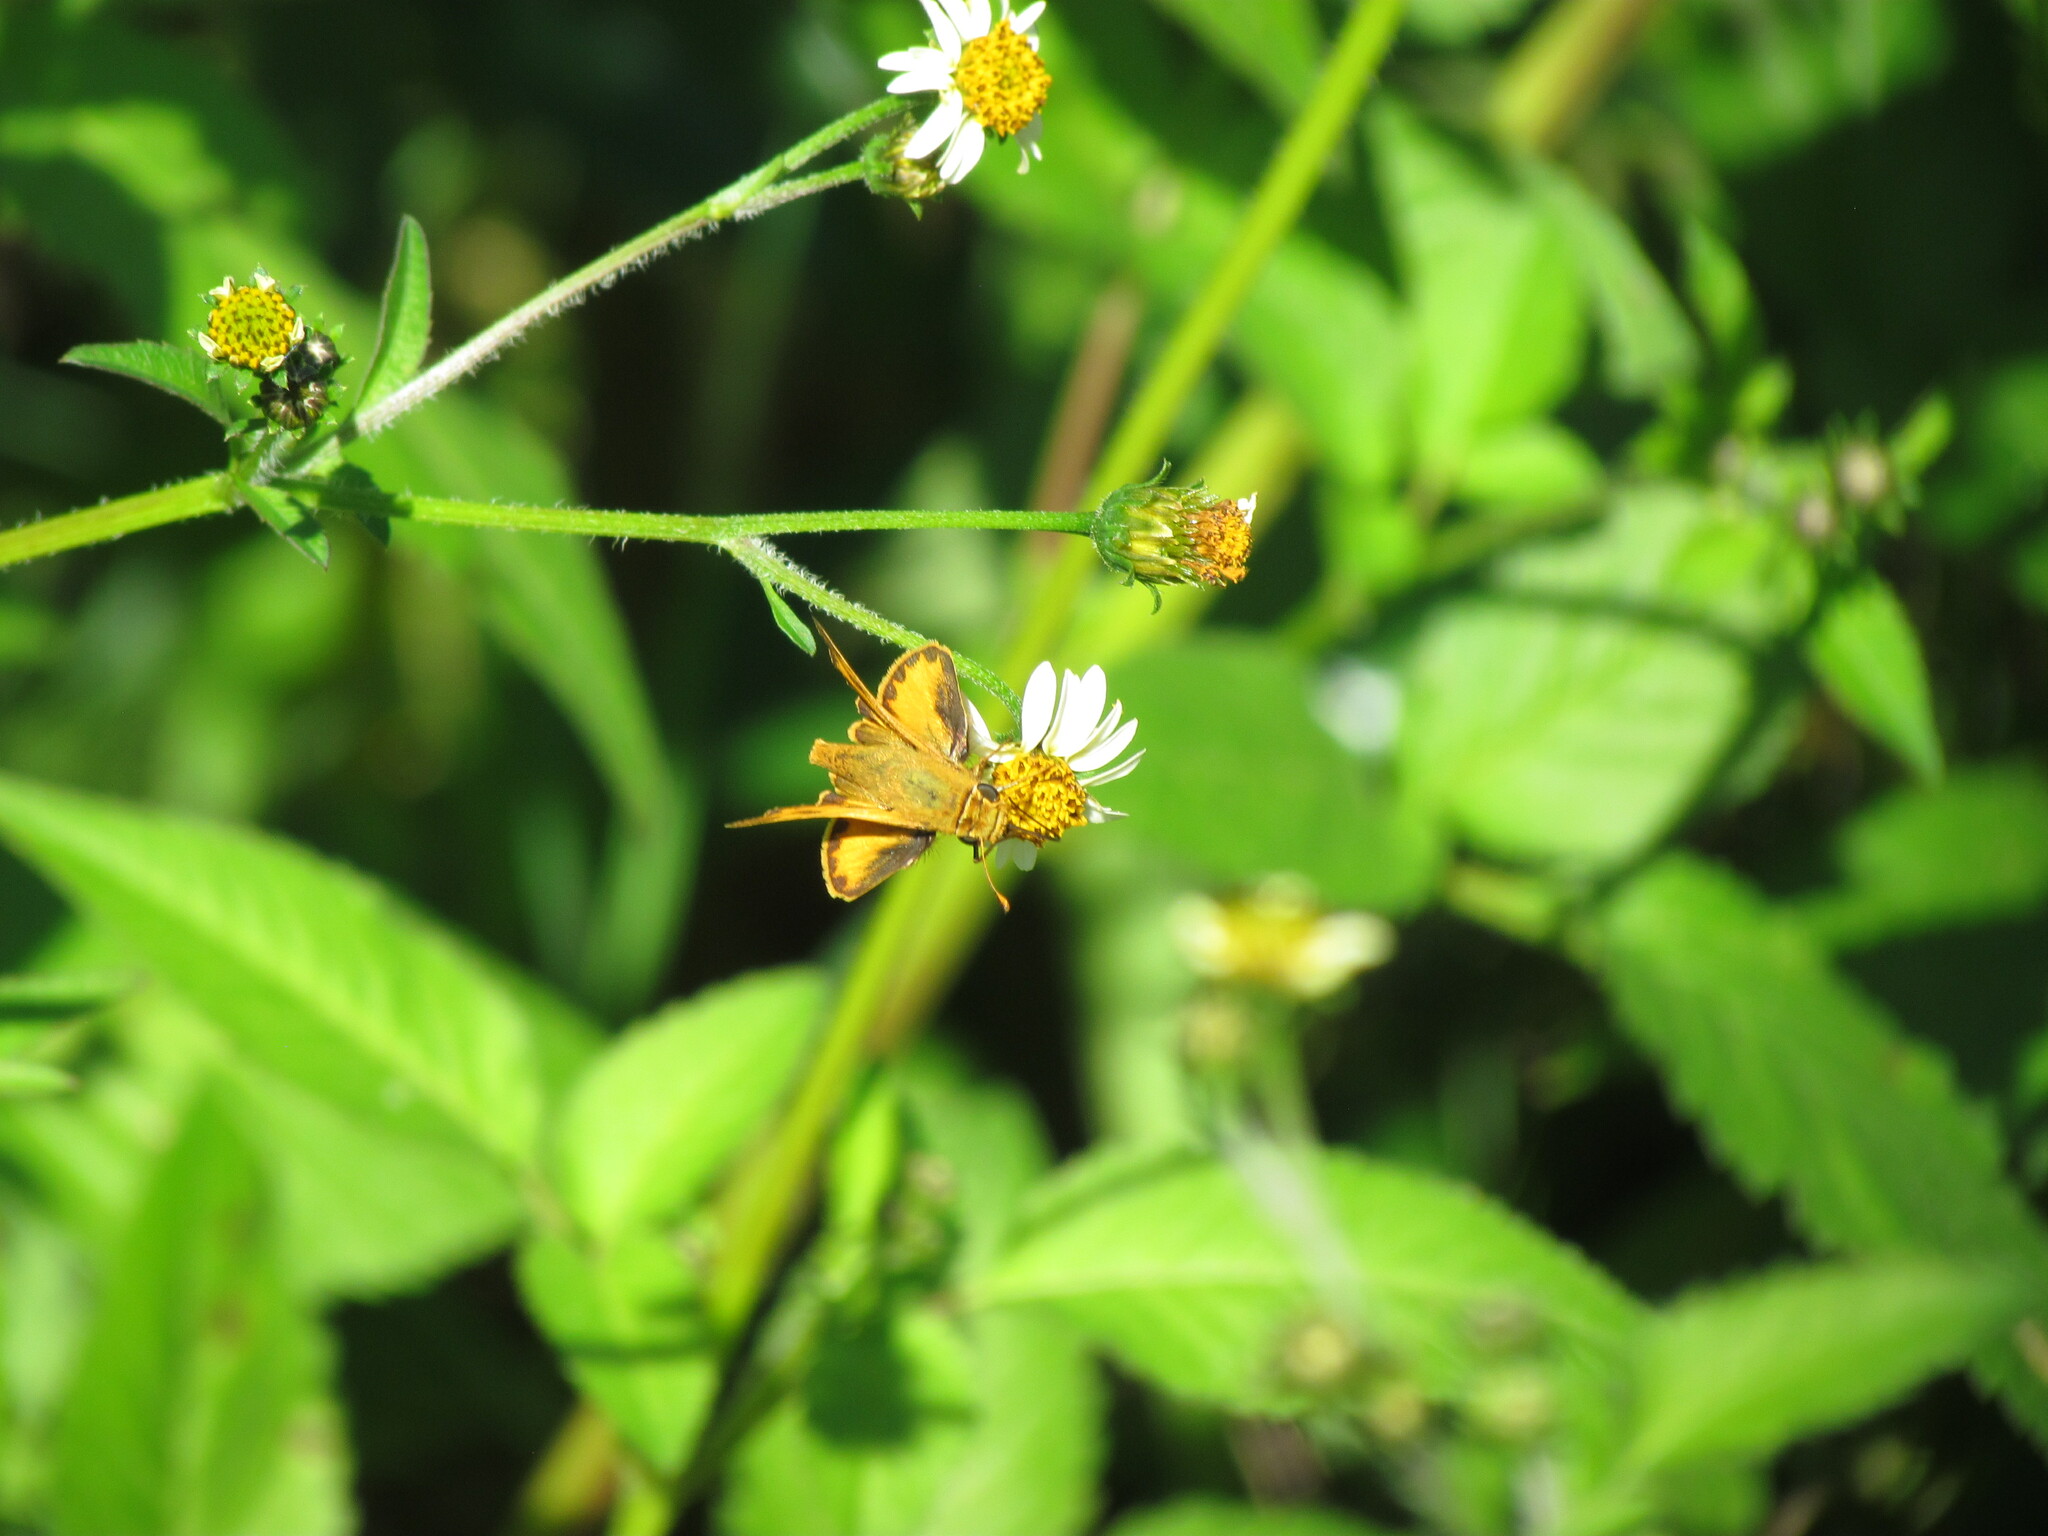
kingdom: Animalia
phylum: Arthropoda
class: Insecta
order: Lepidoptera
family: Hesperiidae
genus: Hylephila
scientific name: Hylephila phyleus
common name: Fiery skipper
